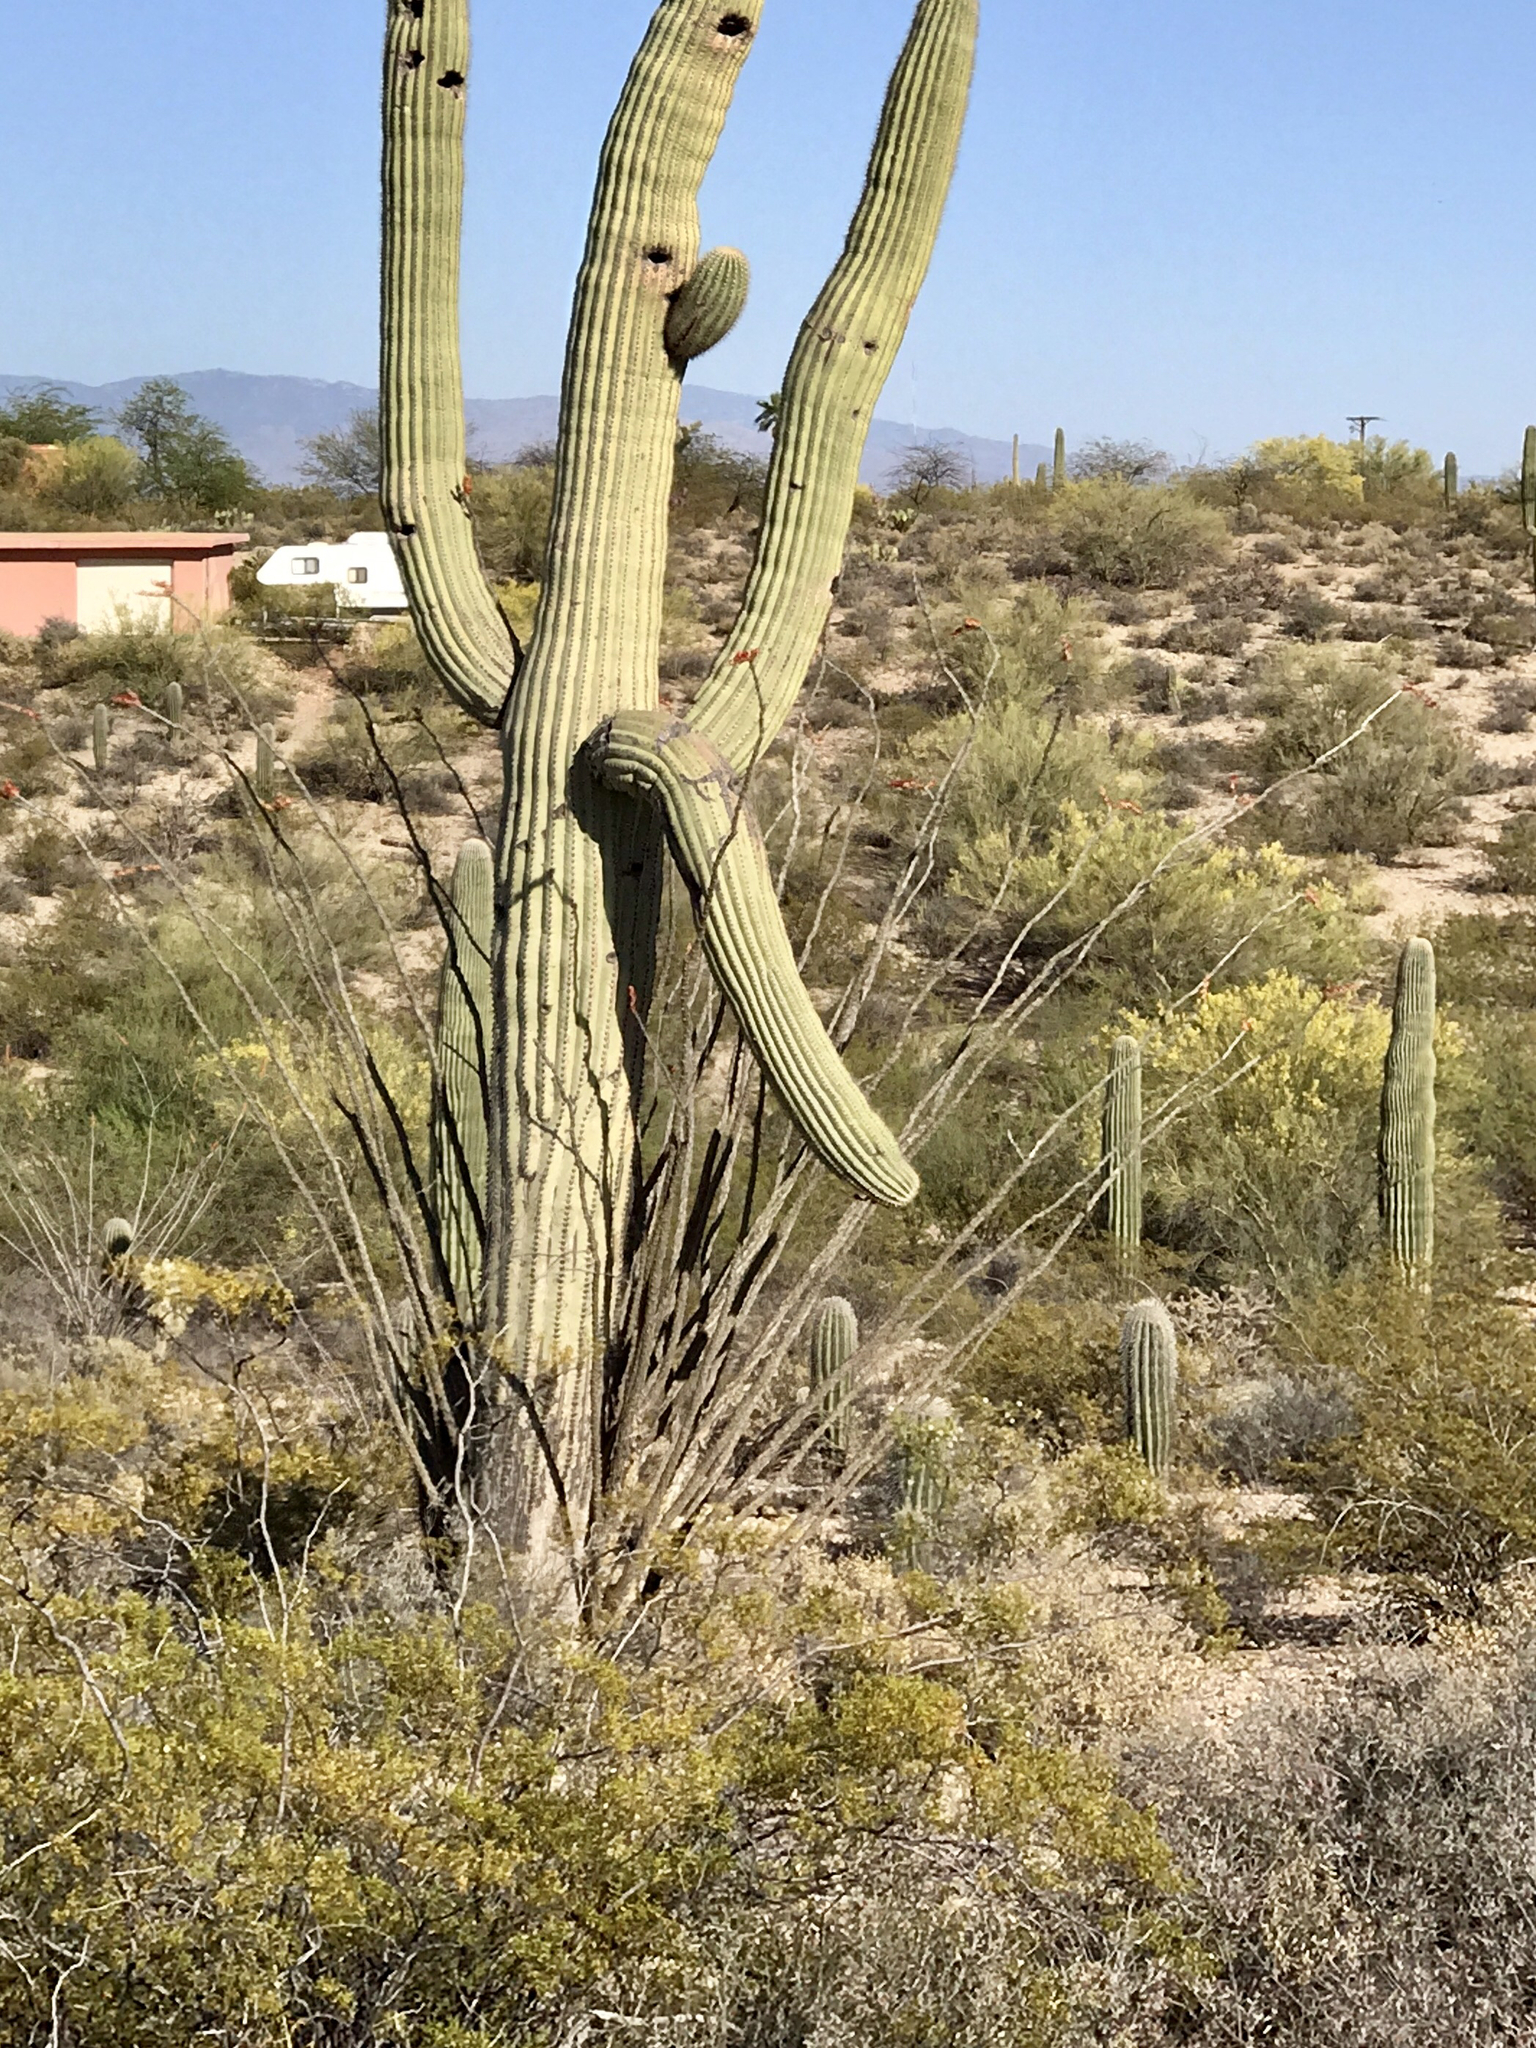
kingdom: Plantae
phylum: Tracheophyta
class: Magnoliopsida
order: Ericales
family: Fouquieriaceae
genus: Fouquieria
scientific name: Fouquieria splendens
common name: Vine-cactus
